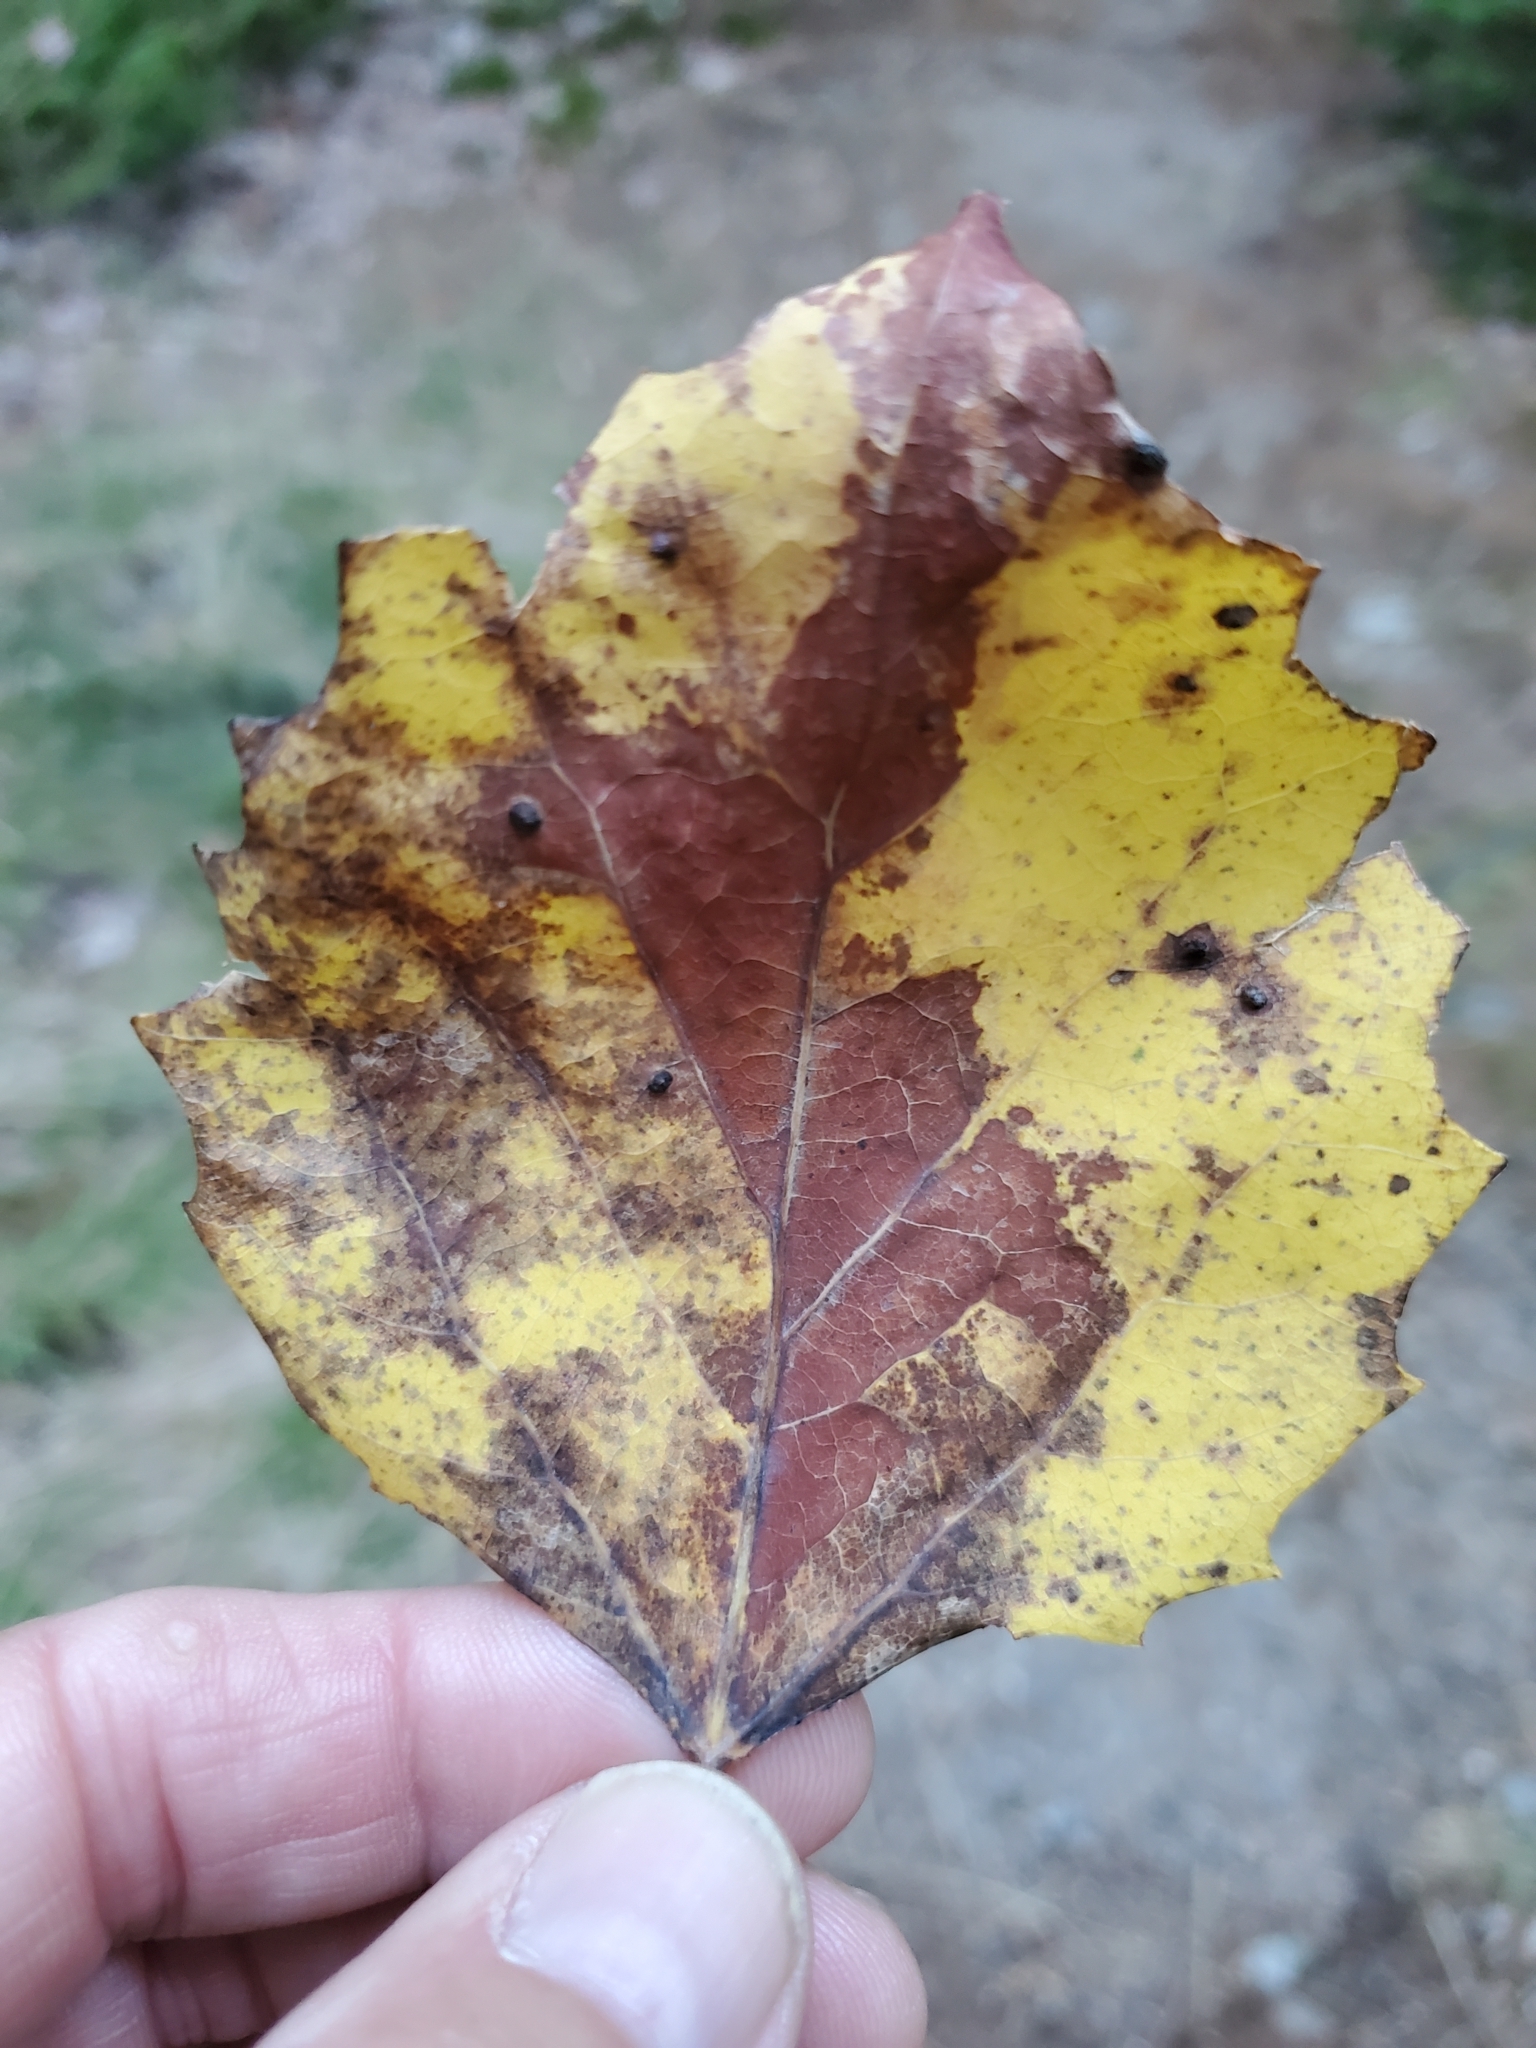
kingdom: Plantae
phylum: Tracheophyta
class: Magnoliopsida
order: Malpighiales
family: Salicaceae
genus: Populus
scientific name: Populus grandidentata
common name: Bigtooth aspen
